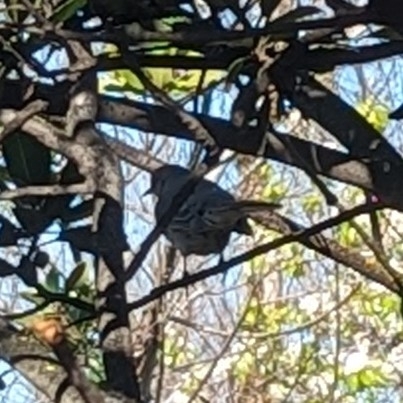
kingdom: Animalia
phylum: Chordata
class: Aves
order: Passeriformes
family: Mimidae
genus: Mimus
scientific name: Mimus polyglottos
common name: Northern mockingbird
